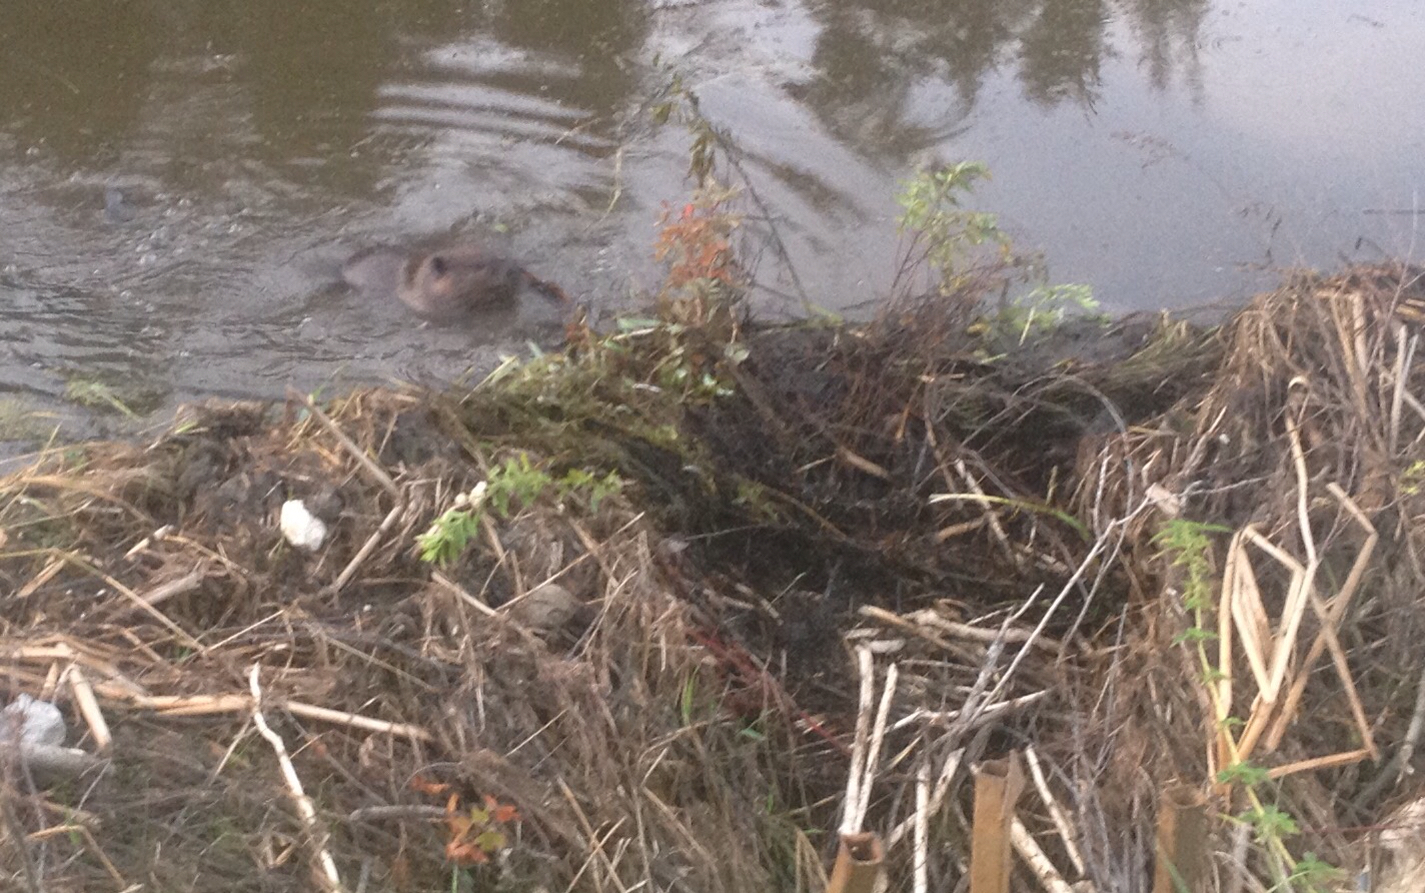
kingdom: Animalia
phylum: Chordata
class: Mammalia
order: Rodentia
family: Castoridae
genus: Castor
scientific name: Castor canadensis
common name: American beaver
